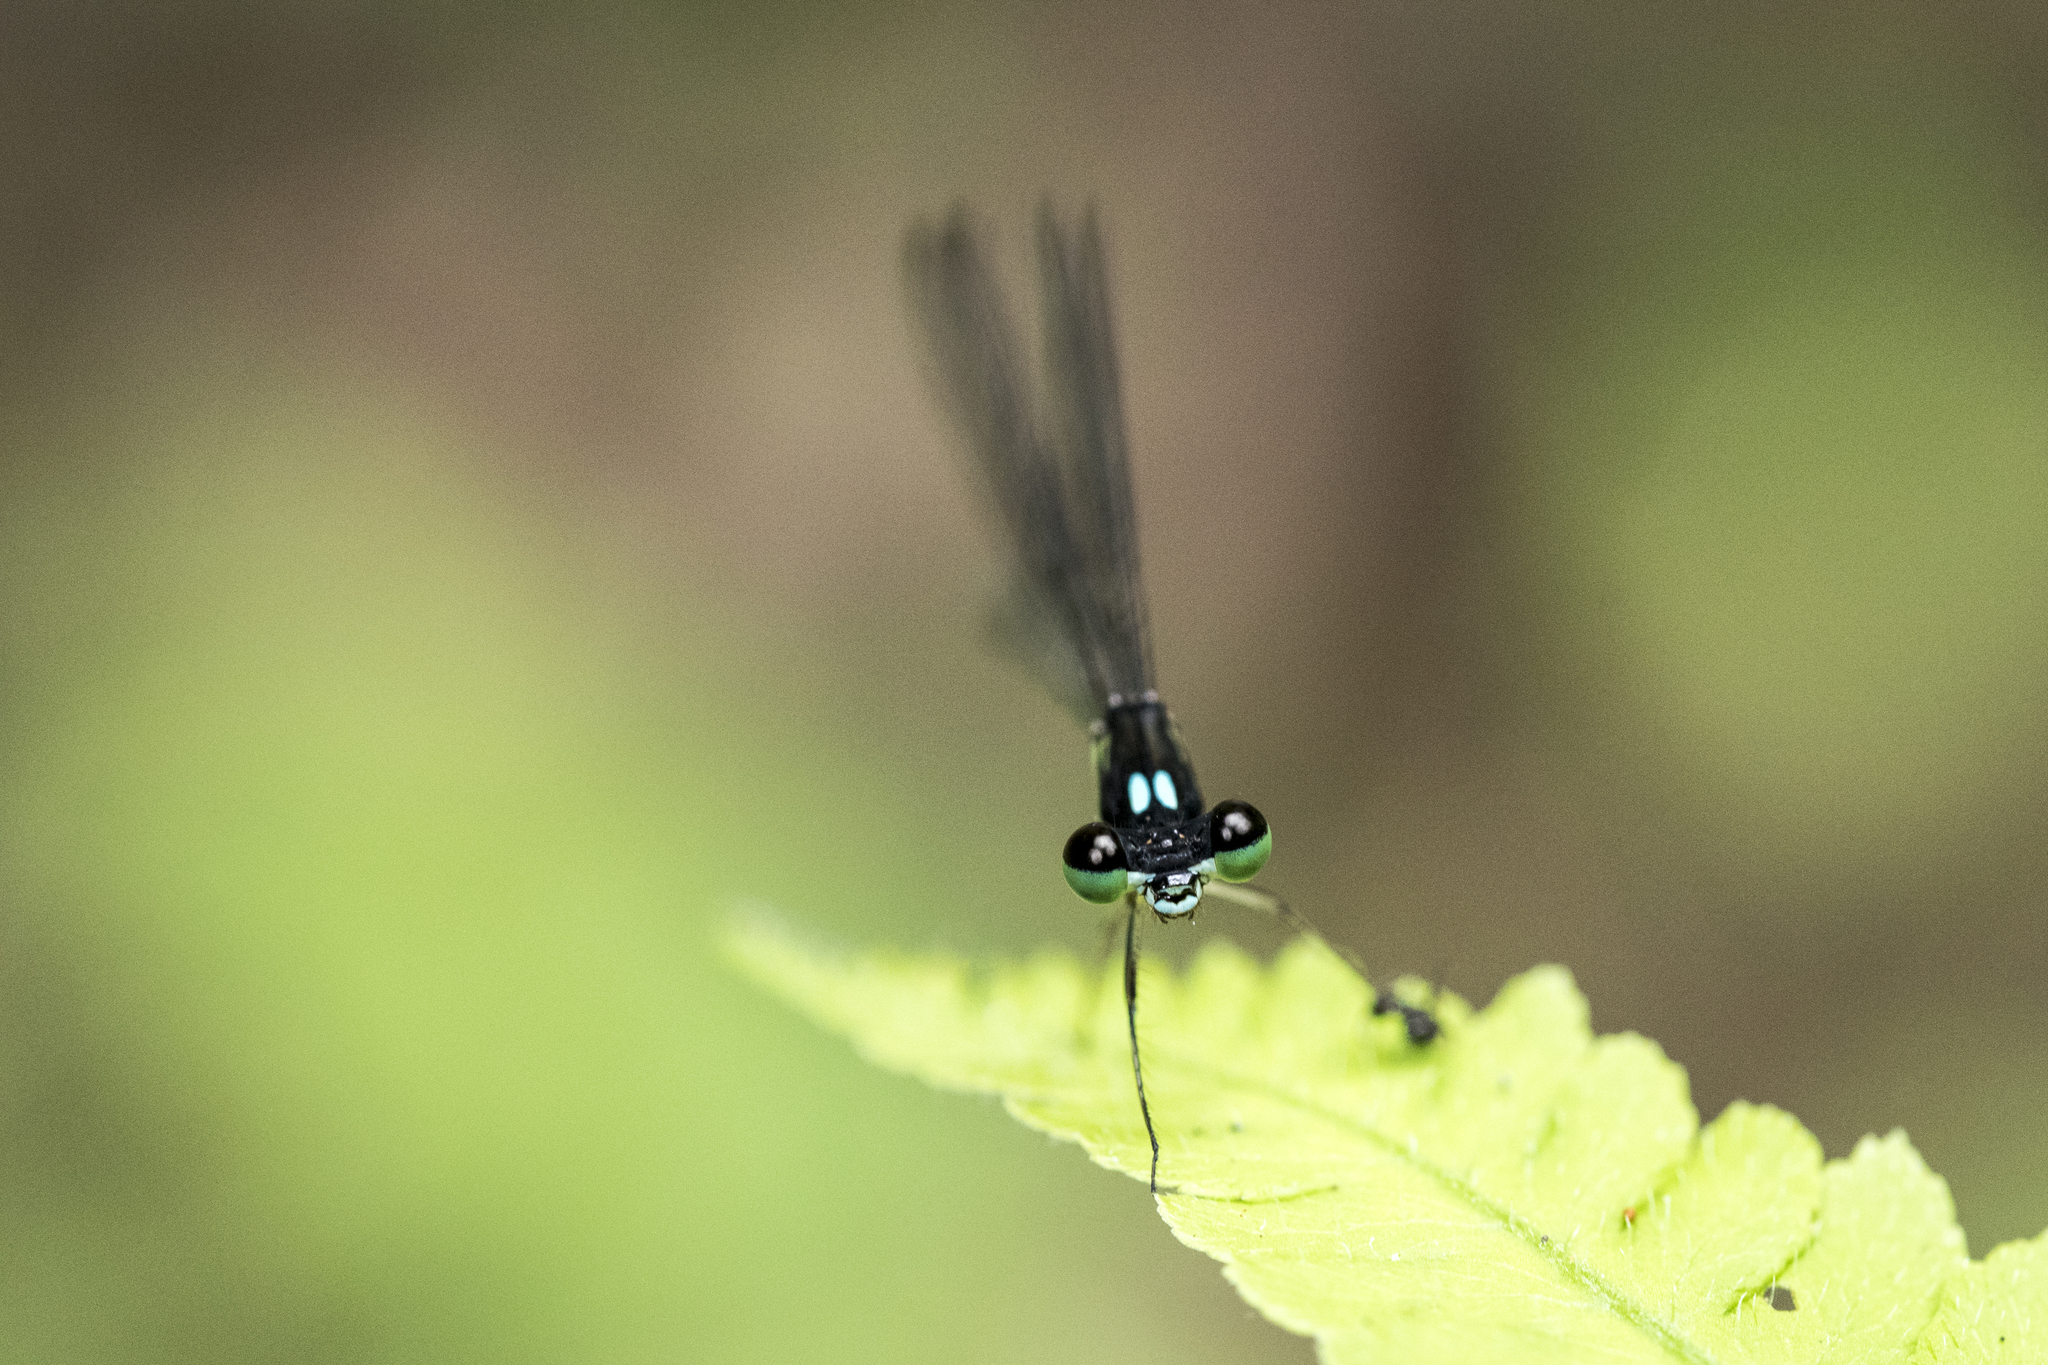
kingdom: Animalia
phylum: Arthropoda
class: Insecta
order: Odonata
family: Platycnemididae
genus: Coeliccia
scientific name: Coeliccia flavicauda
